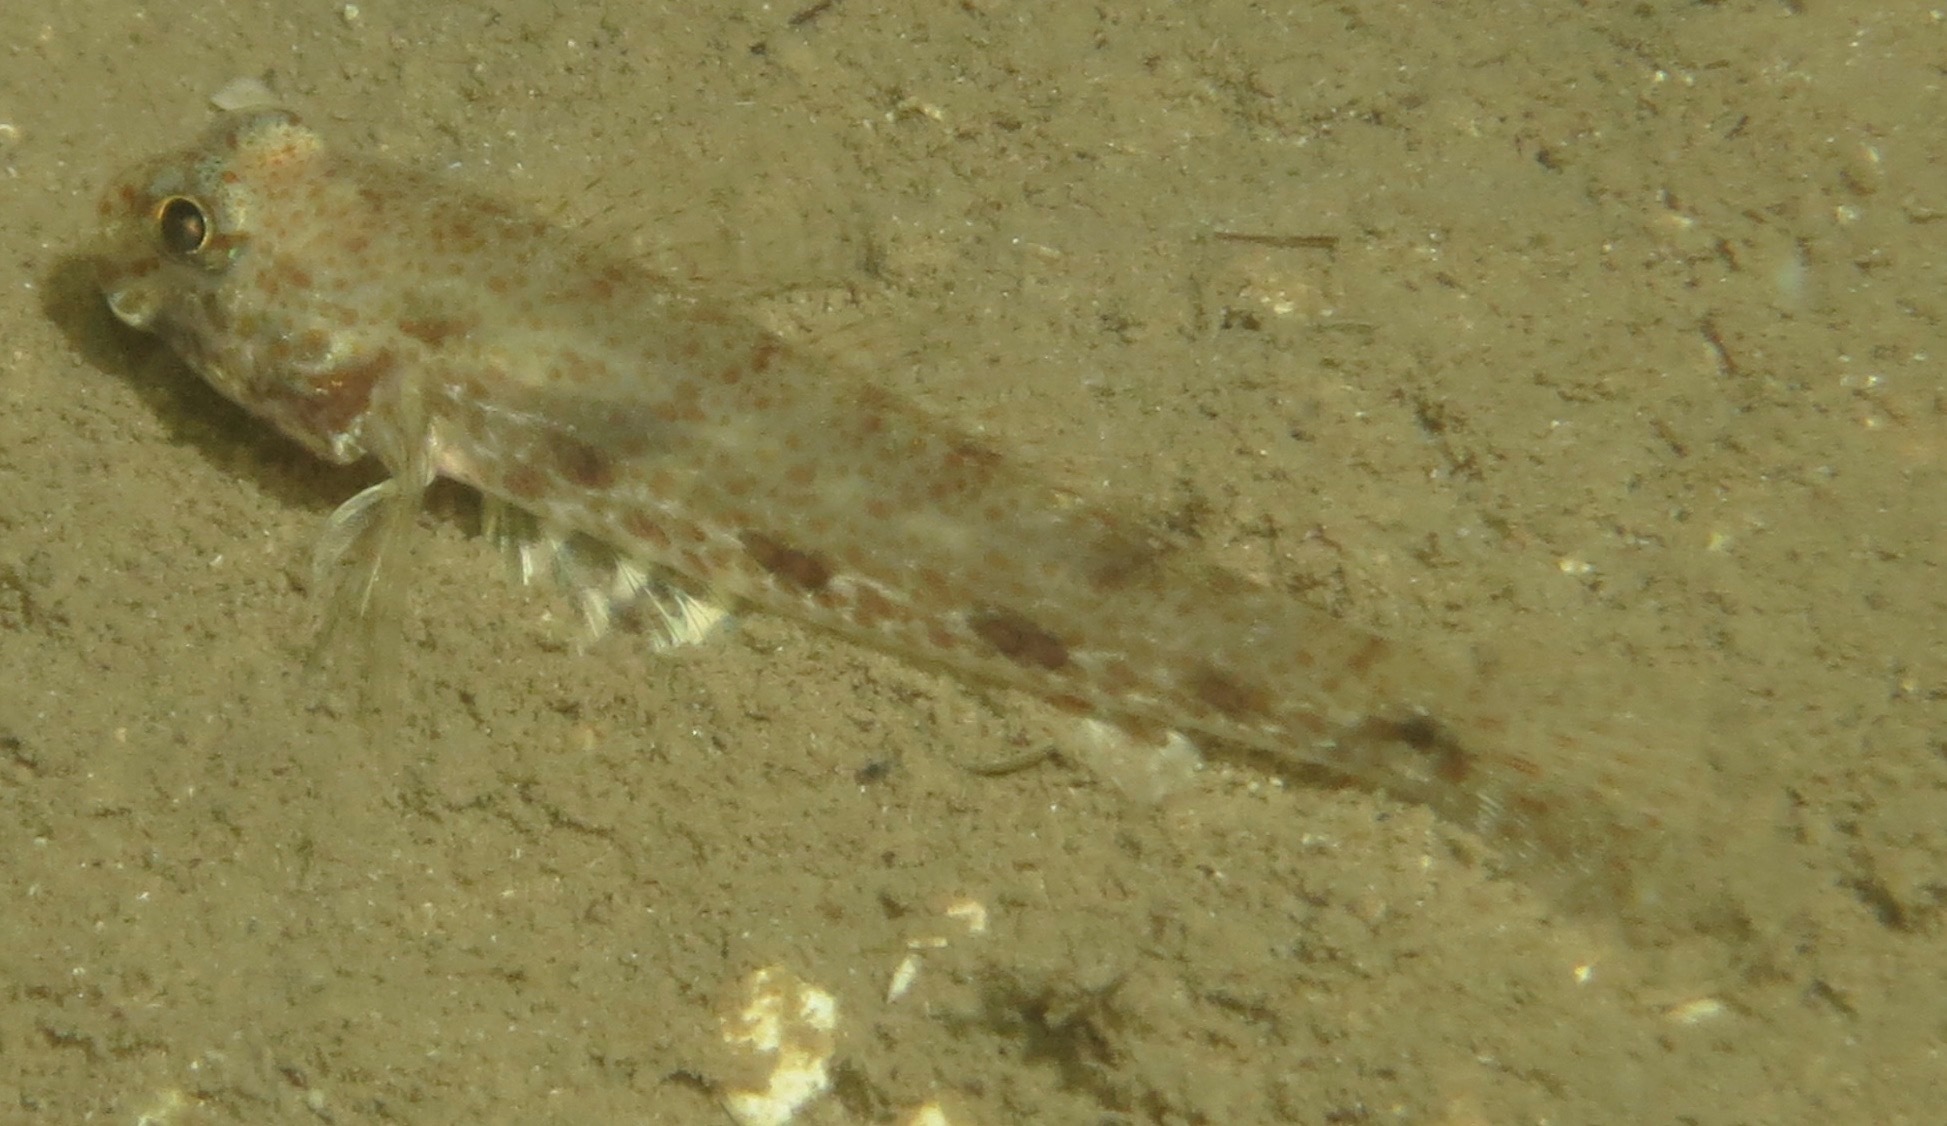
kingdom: Animalia
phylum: Chordata
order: Perciformes
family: Gobiidae
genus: Macrodontogobius
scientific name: Macrodontogobius wilburi
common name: Largetooth goby
